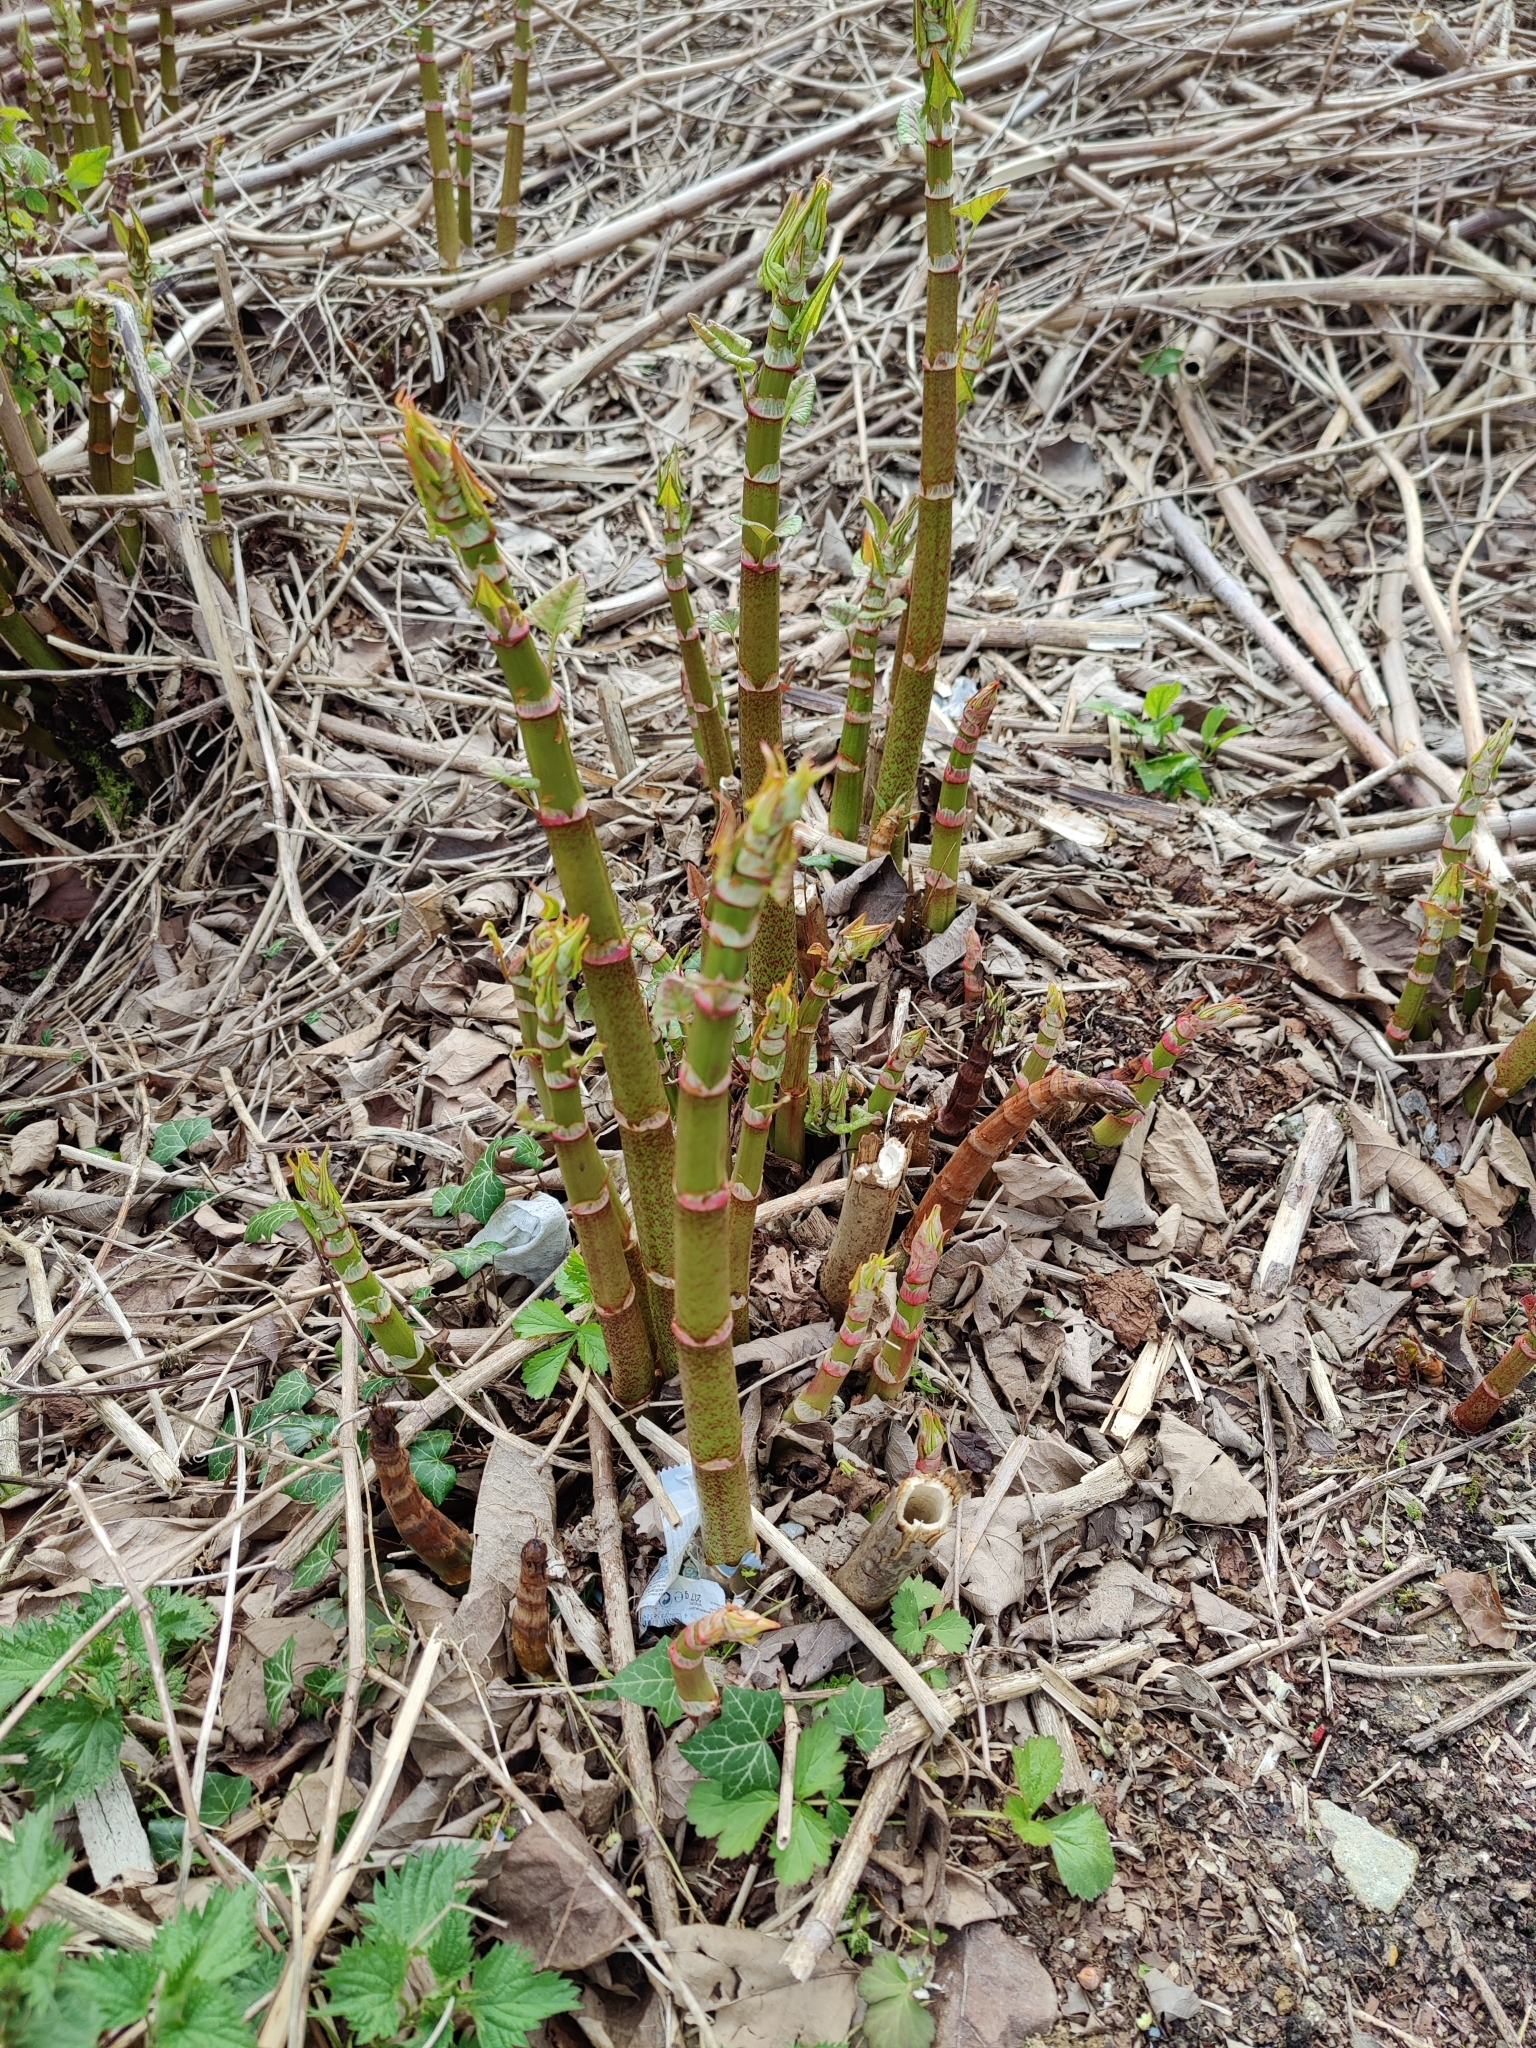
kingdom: Plantae
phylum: Tracheophyta
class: Magnoliopsida
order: Caryophyllales
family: Polygonaceae
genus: Reynoutria
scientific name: Reynoutria japonica
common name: Japanese knotweed
